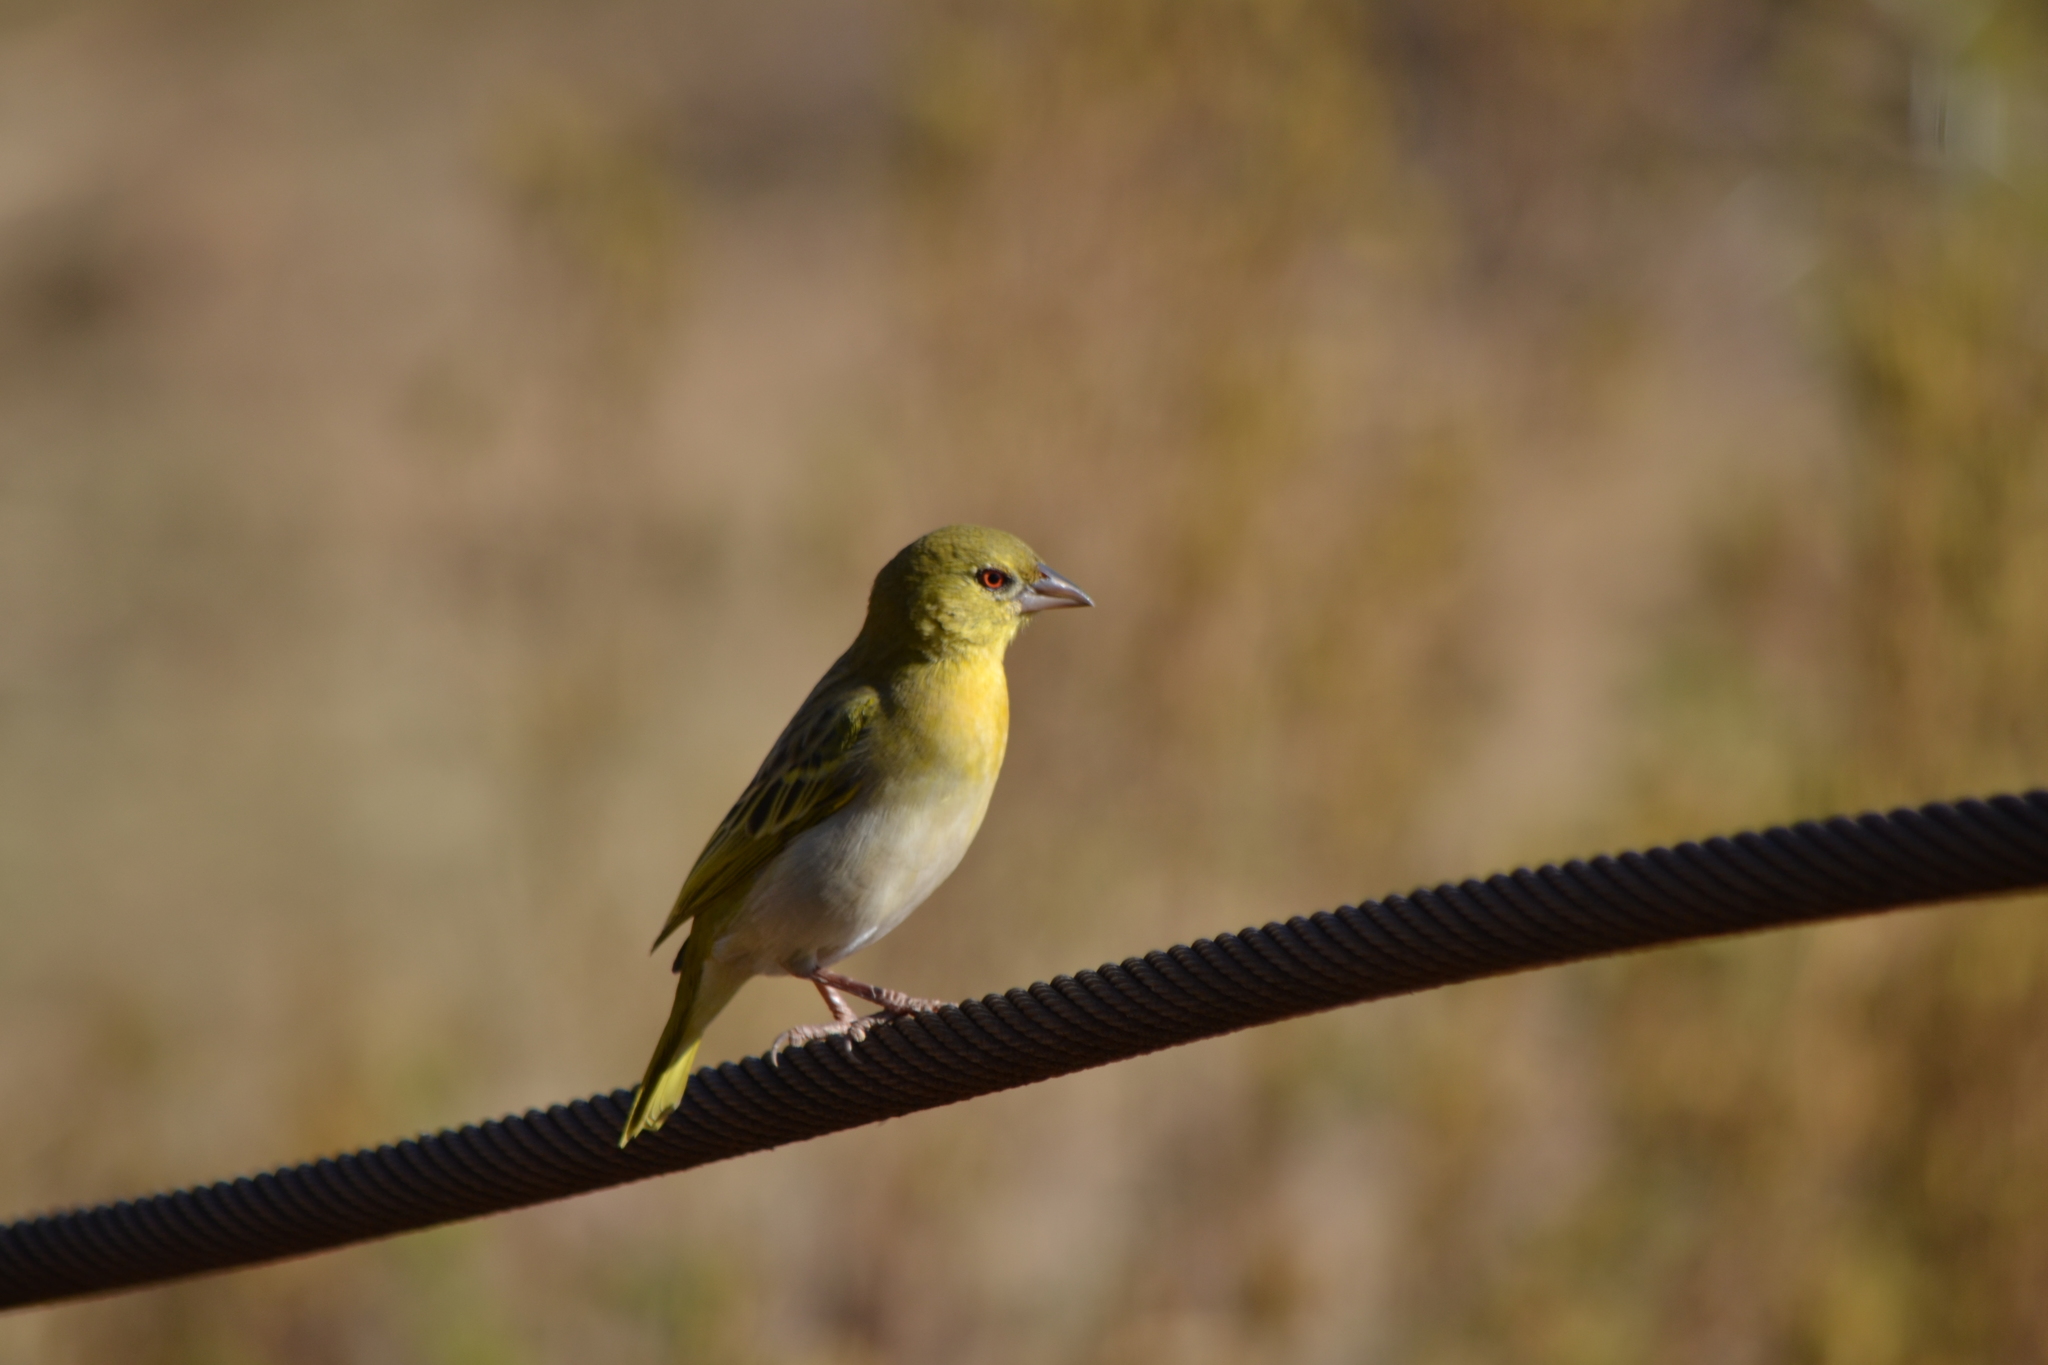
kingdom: Animalia
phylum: Chordata
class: Aves
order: Passeriformes
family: Ploceidae
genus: Ploceus
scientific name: Ploceus velatus
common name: Southern masked weaver
